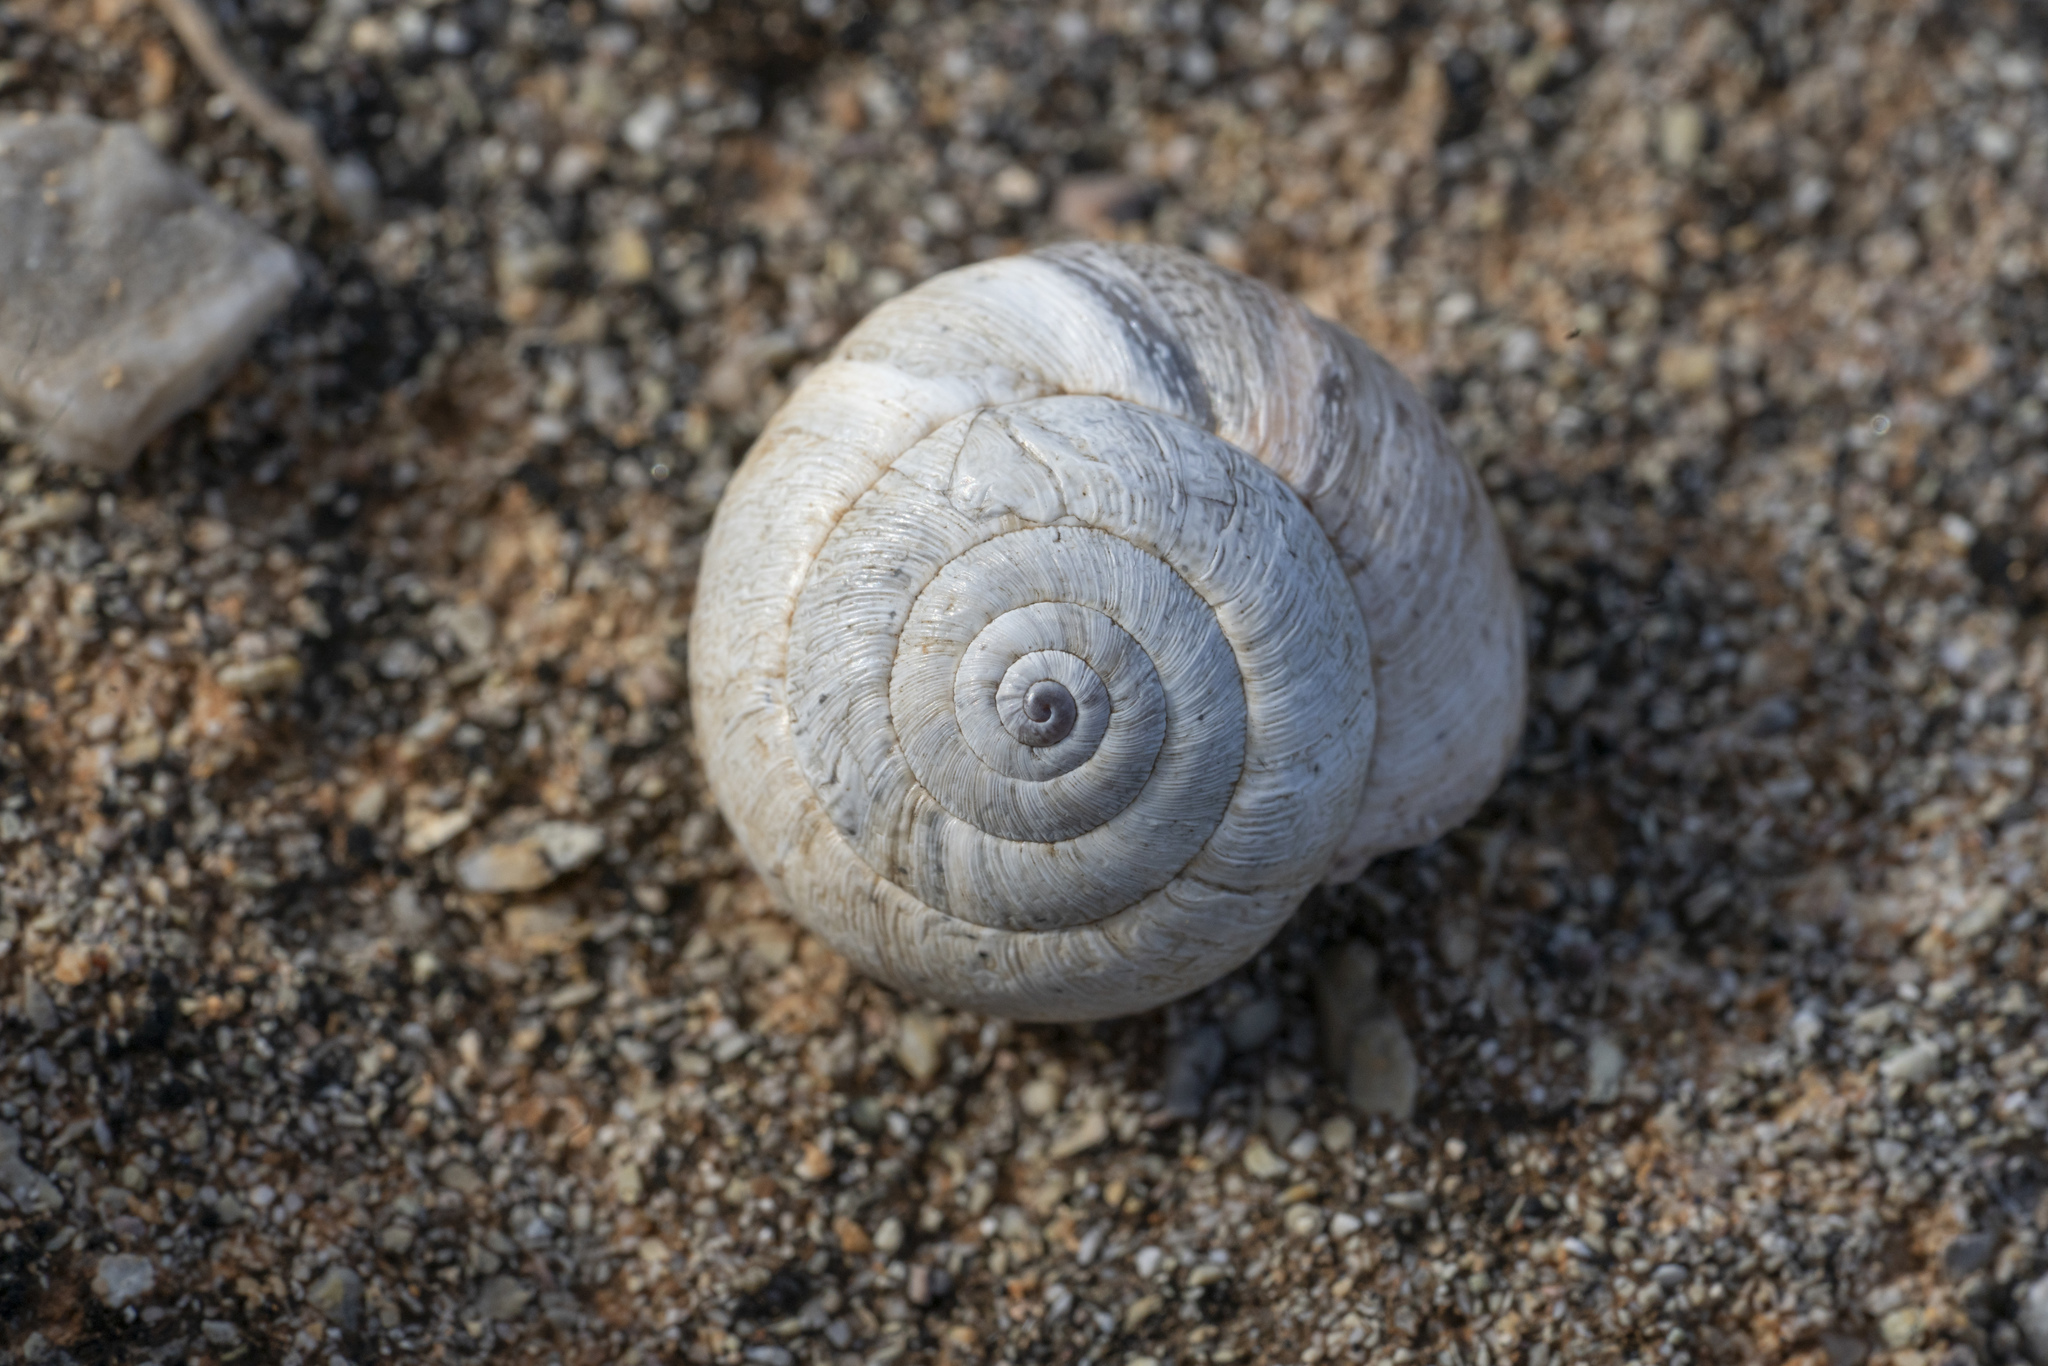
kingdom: Animalia
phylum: Mollusca
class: Gastropoda
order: Stylommatophora
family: Geomitridae
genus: Xerocrassa
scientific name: Xerocrassa cretica
